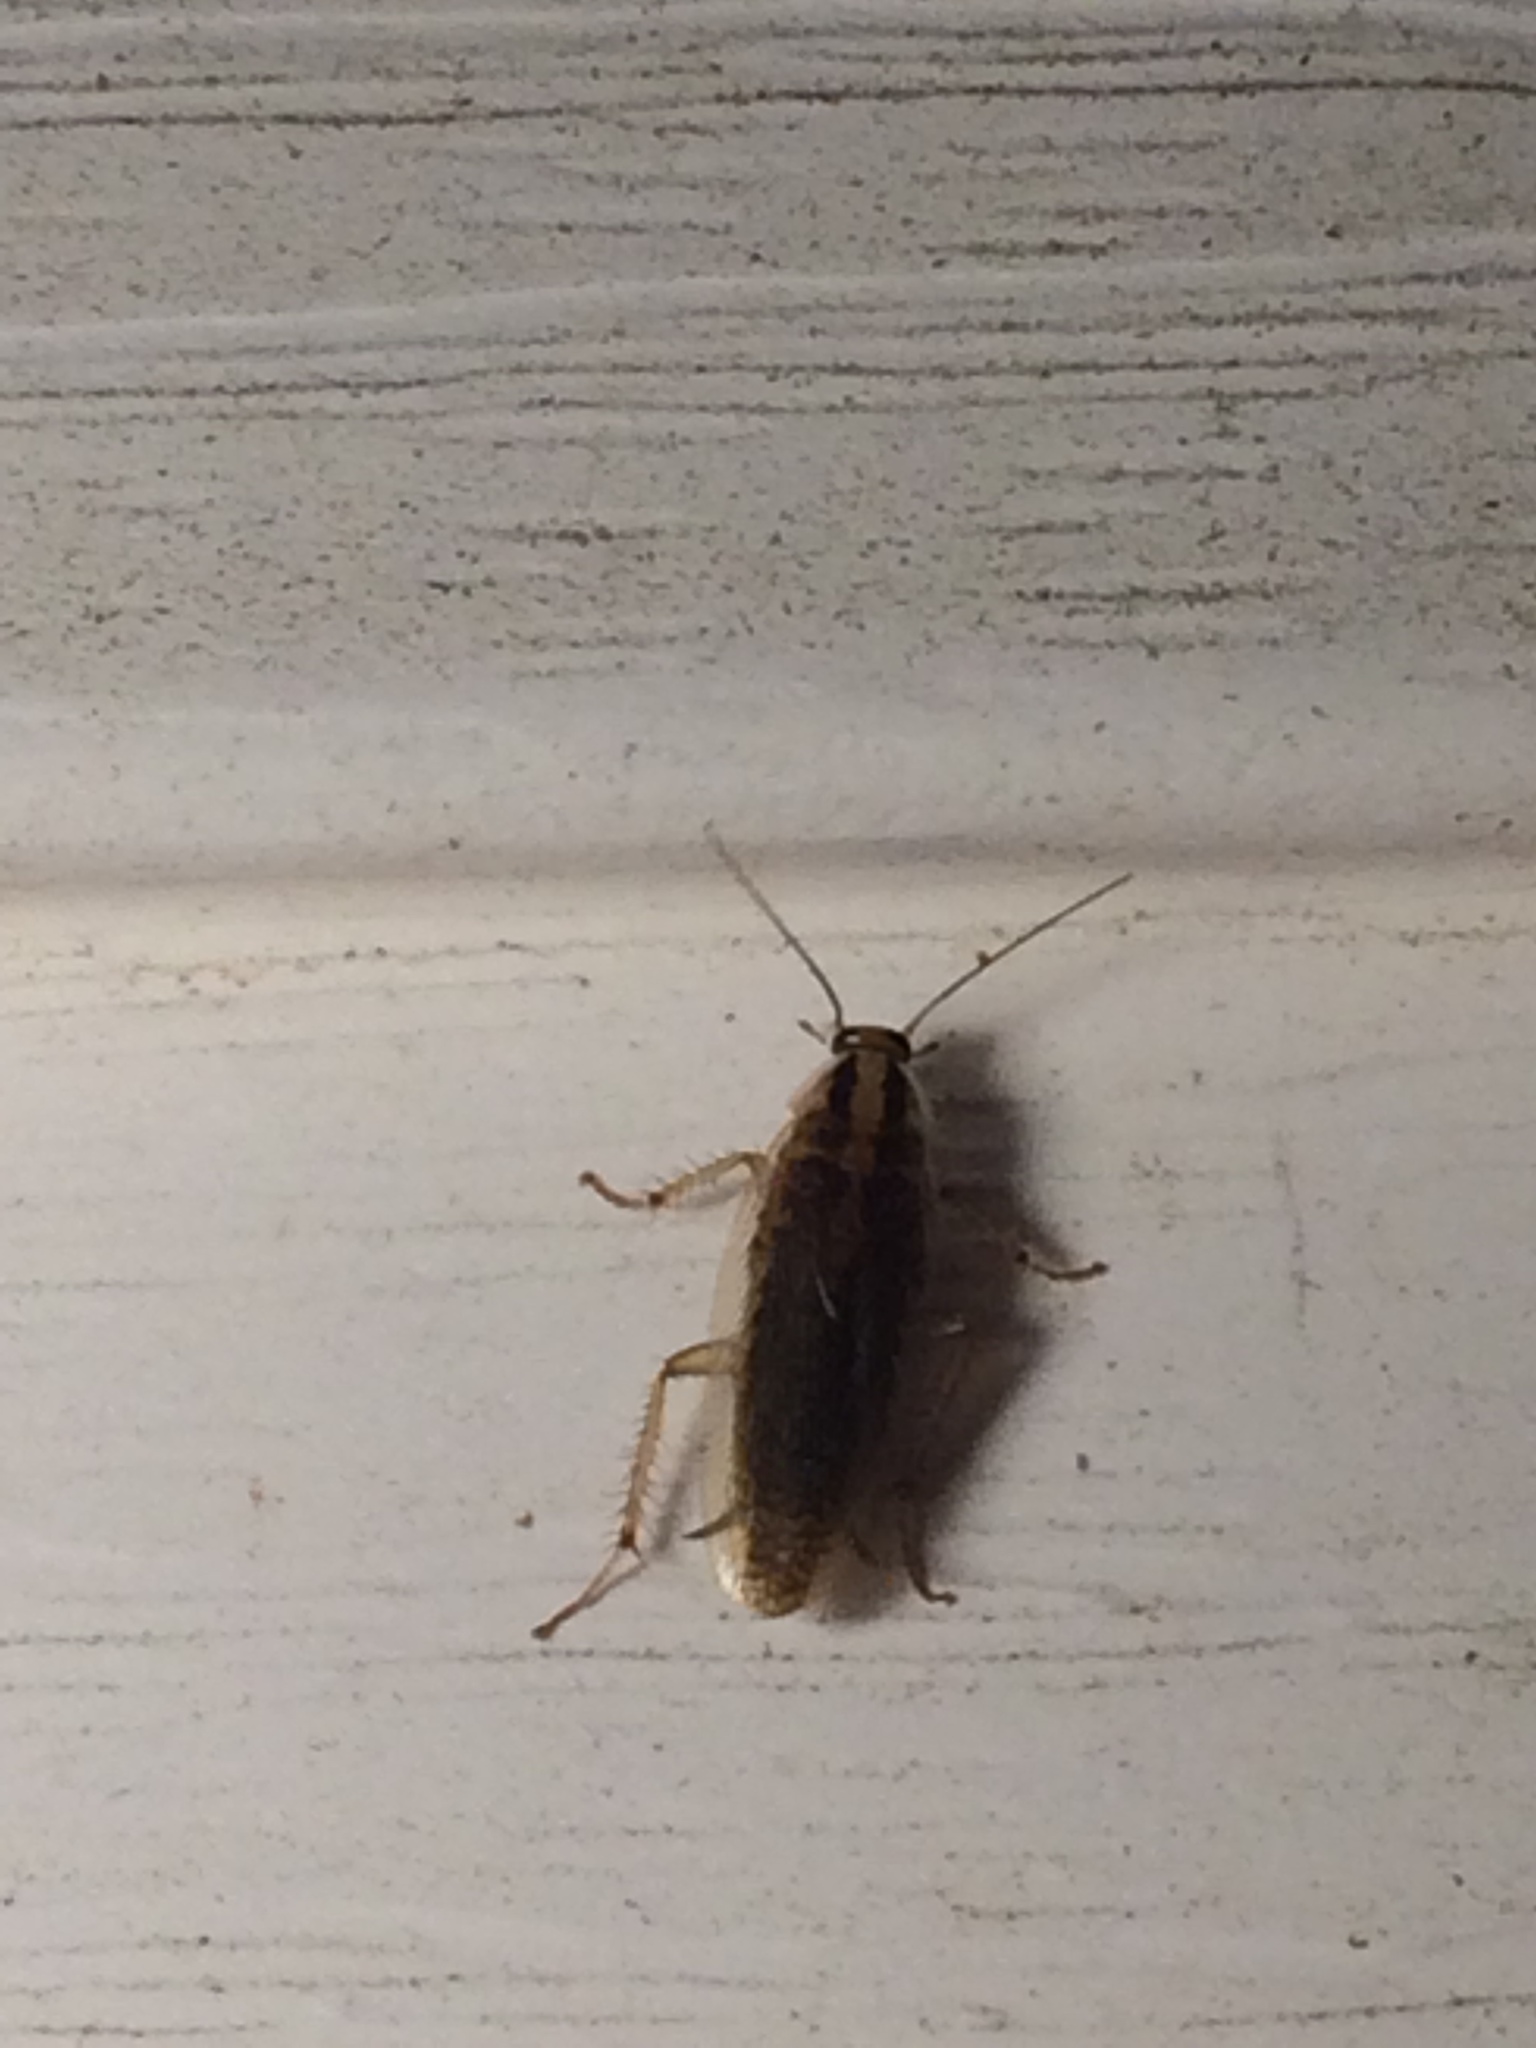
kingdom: Animalia
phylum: Arthropoda
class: Insecta
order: Blattodea
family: Ectobiidae
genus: Blattella
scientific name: Blattella germanica
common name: German cockroach
